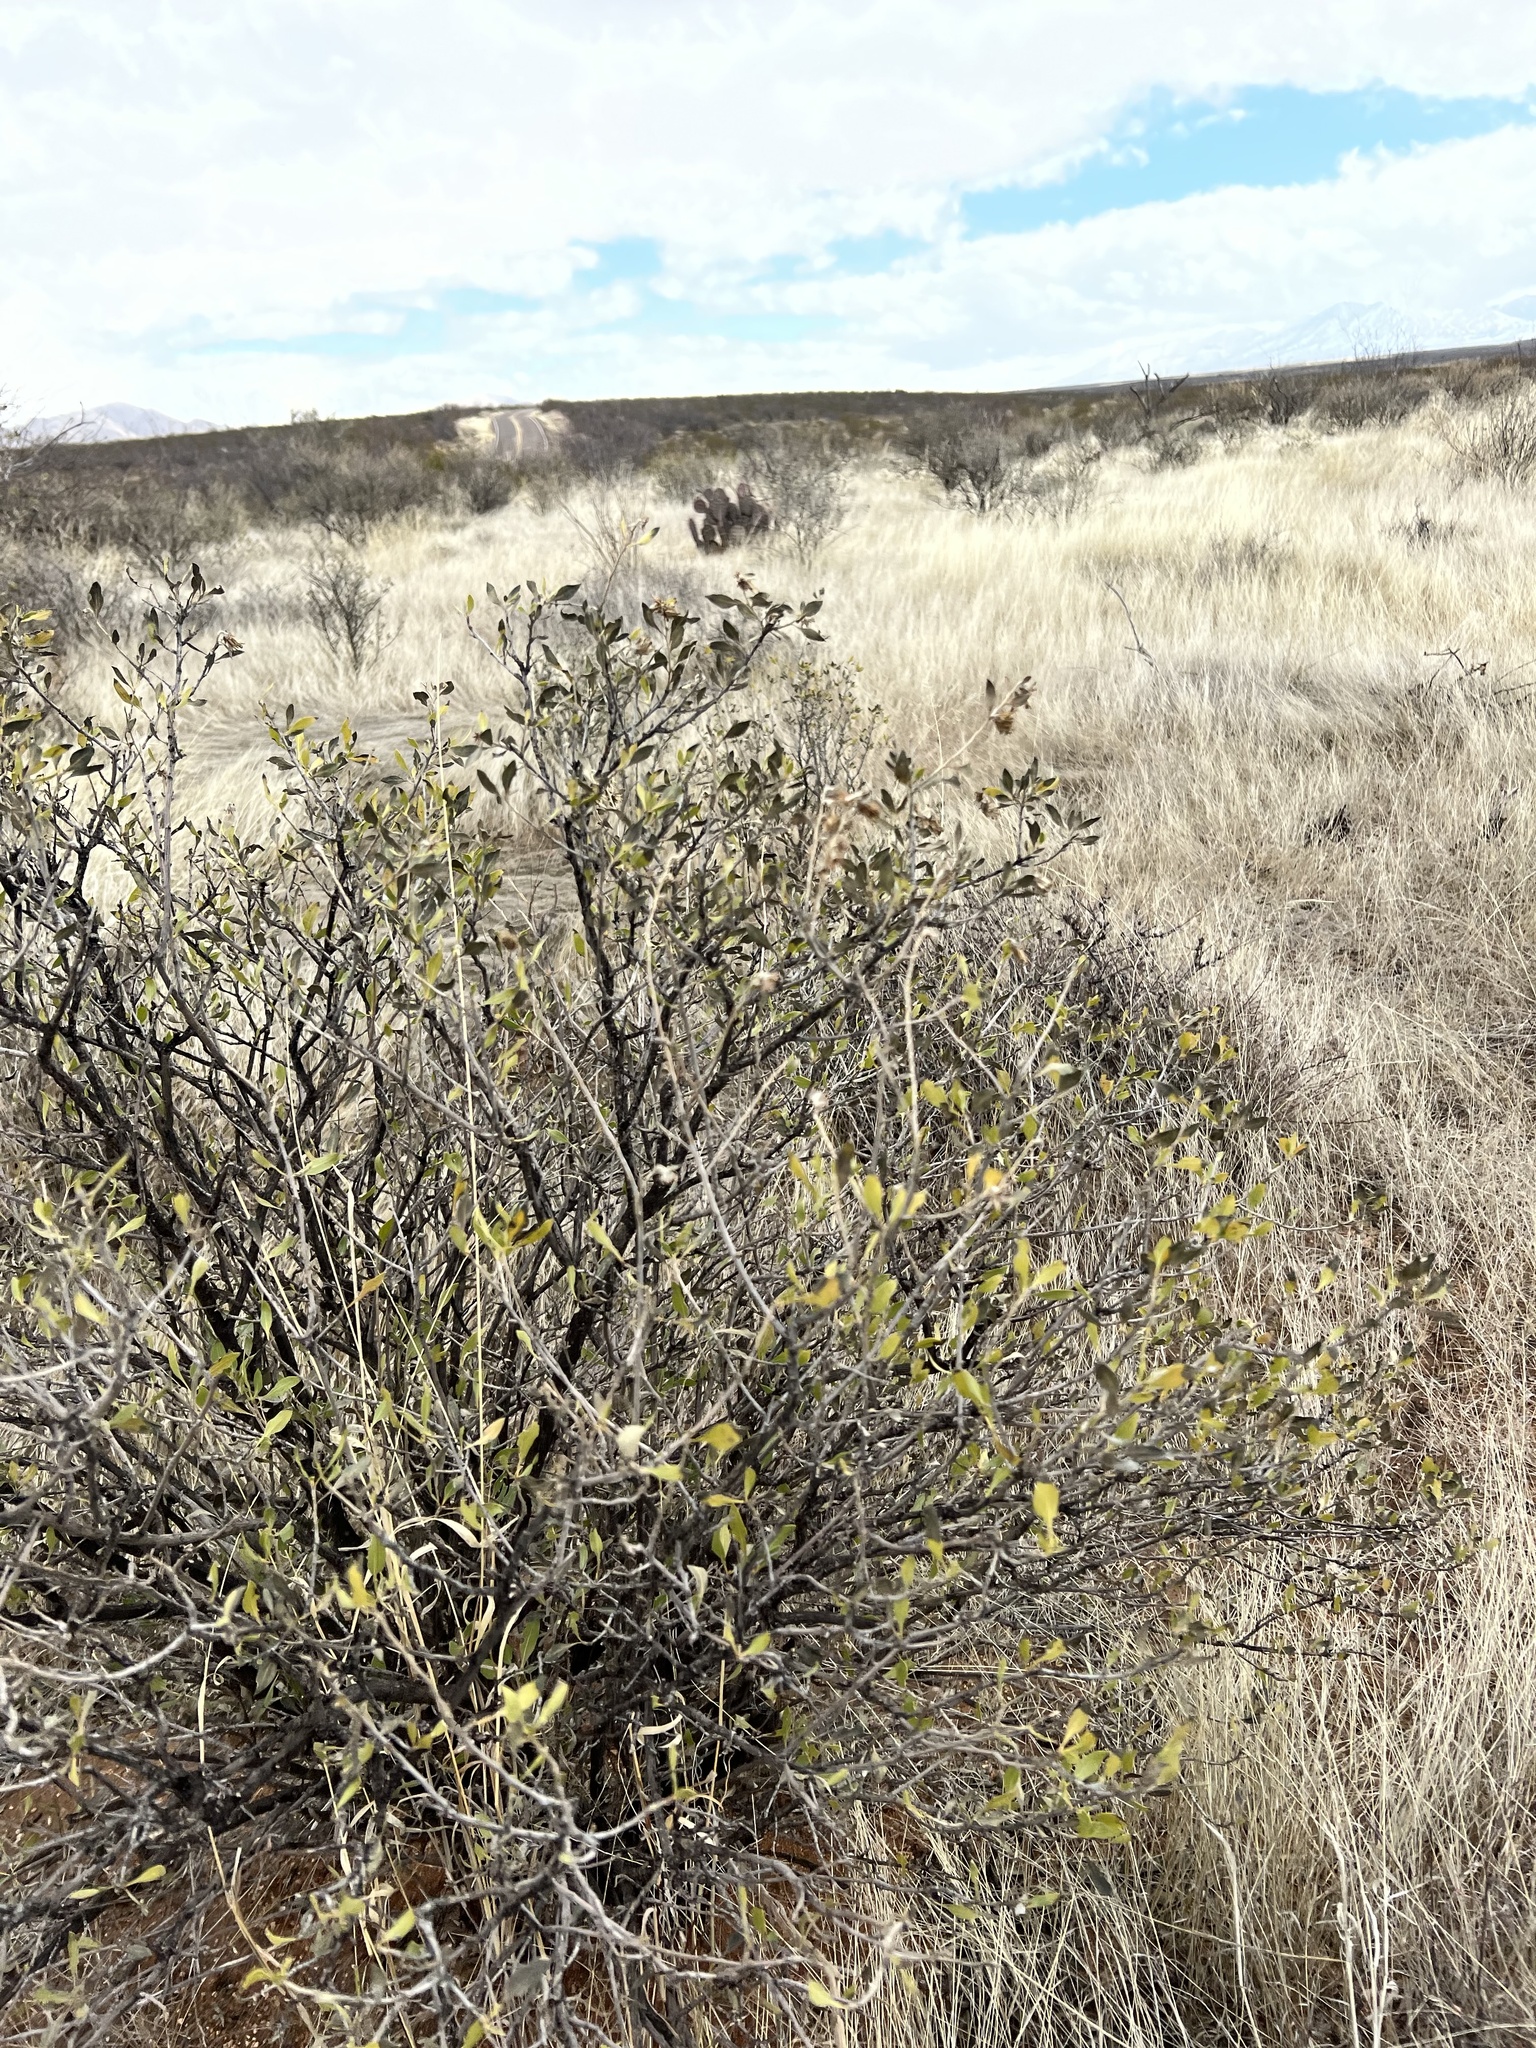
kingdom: Plantae
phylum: Tracheophyta
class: Magnoliopsida
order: Asterales
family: Asteraceae
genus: Flourensia
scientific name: Flourensia cernua
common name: Varnishbush
